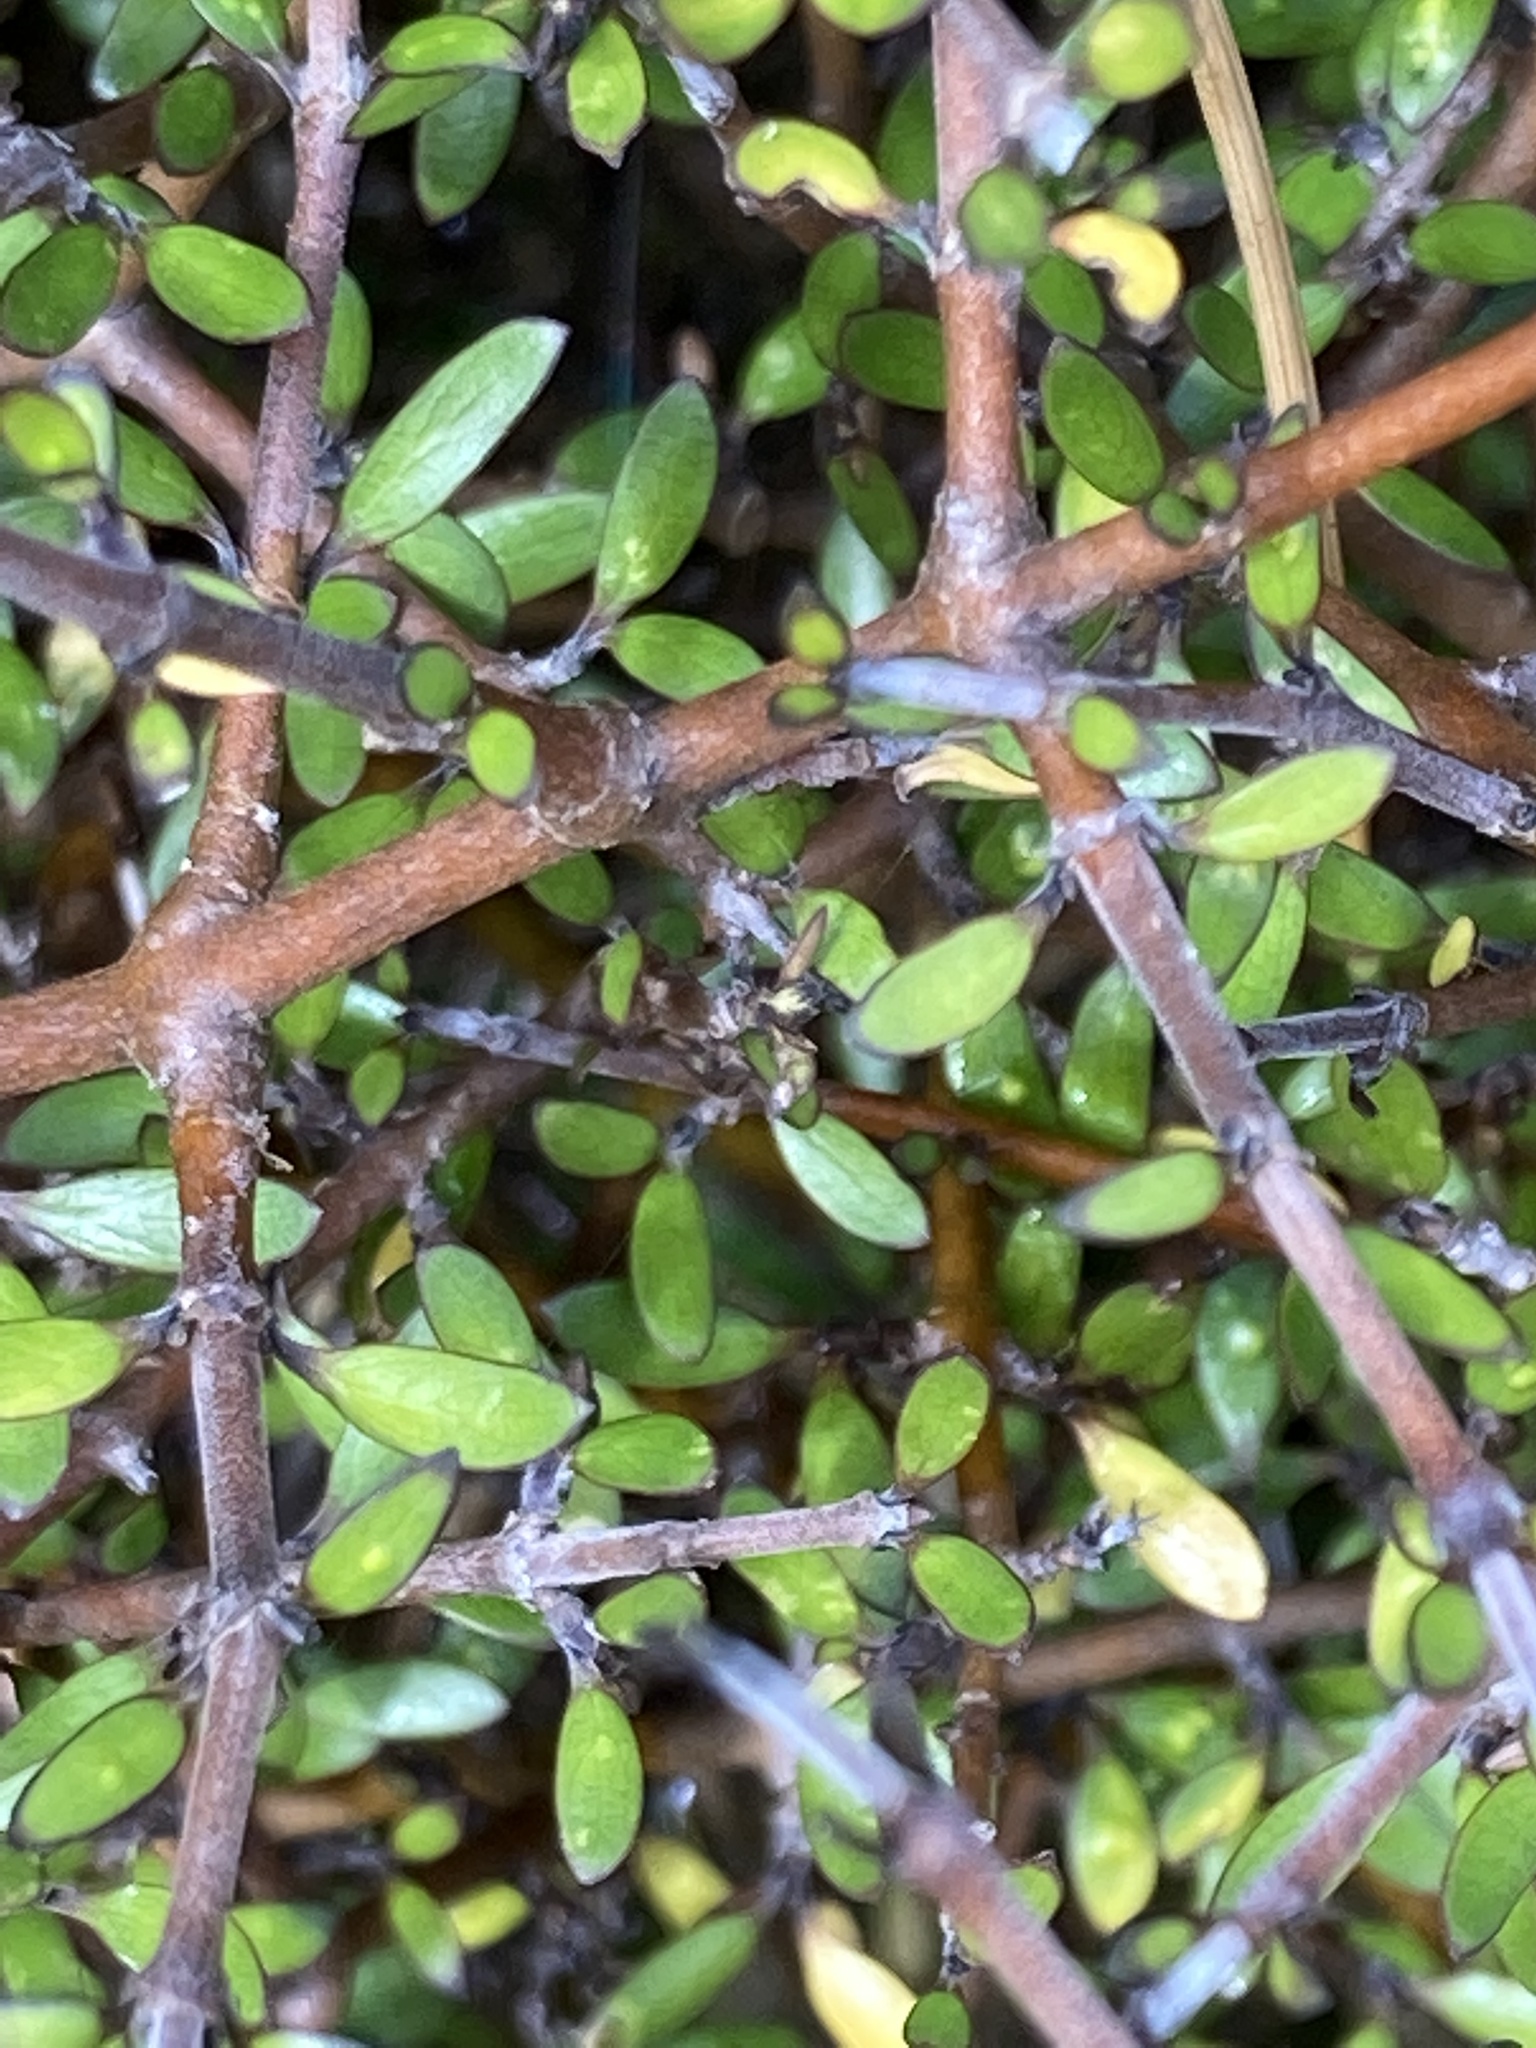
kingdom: Plantae
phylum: Tracheophyta
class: Magnoliopsida
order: Gentianales
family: Rubiaceae
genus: Coprosma
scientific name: Coprosma propinqua
